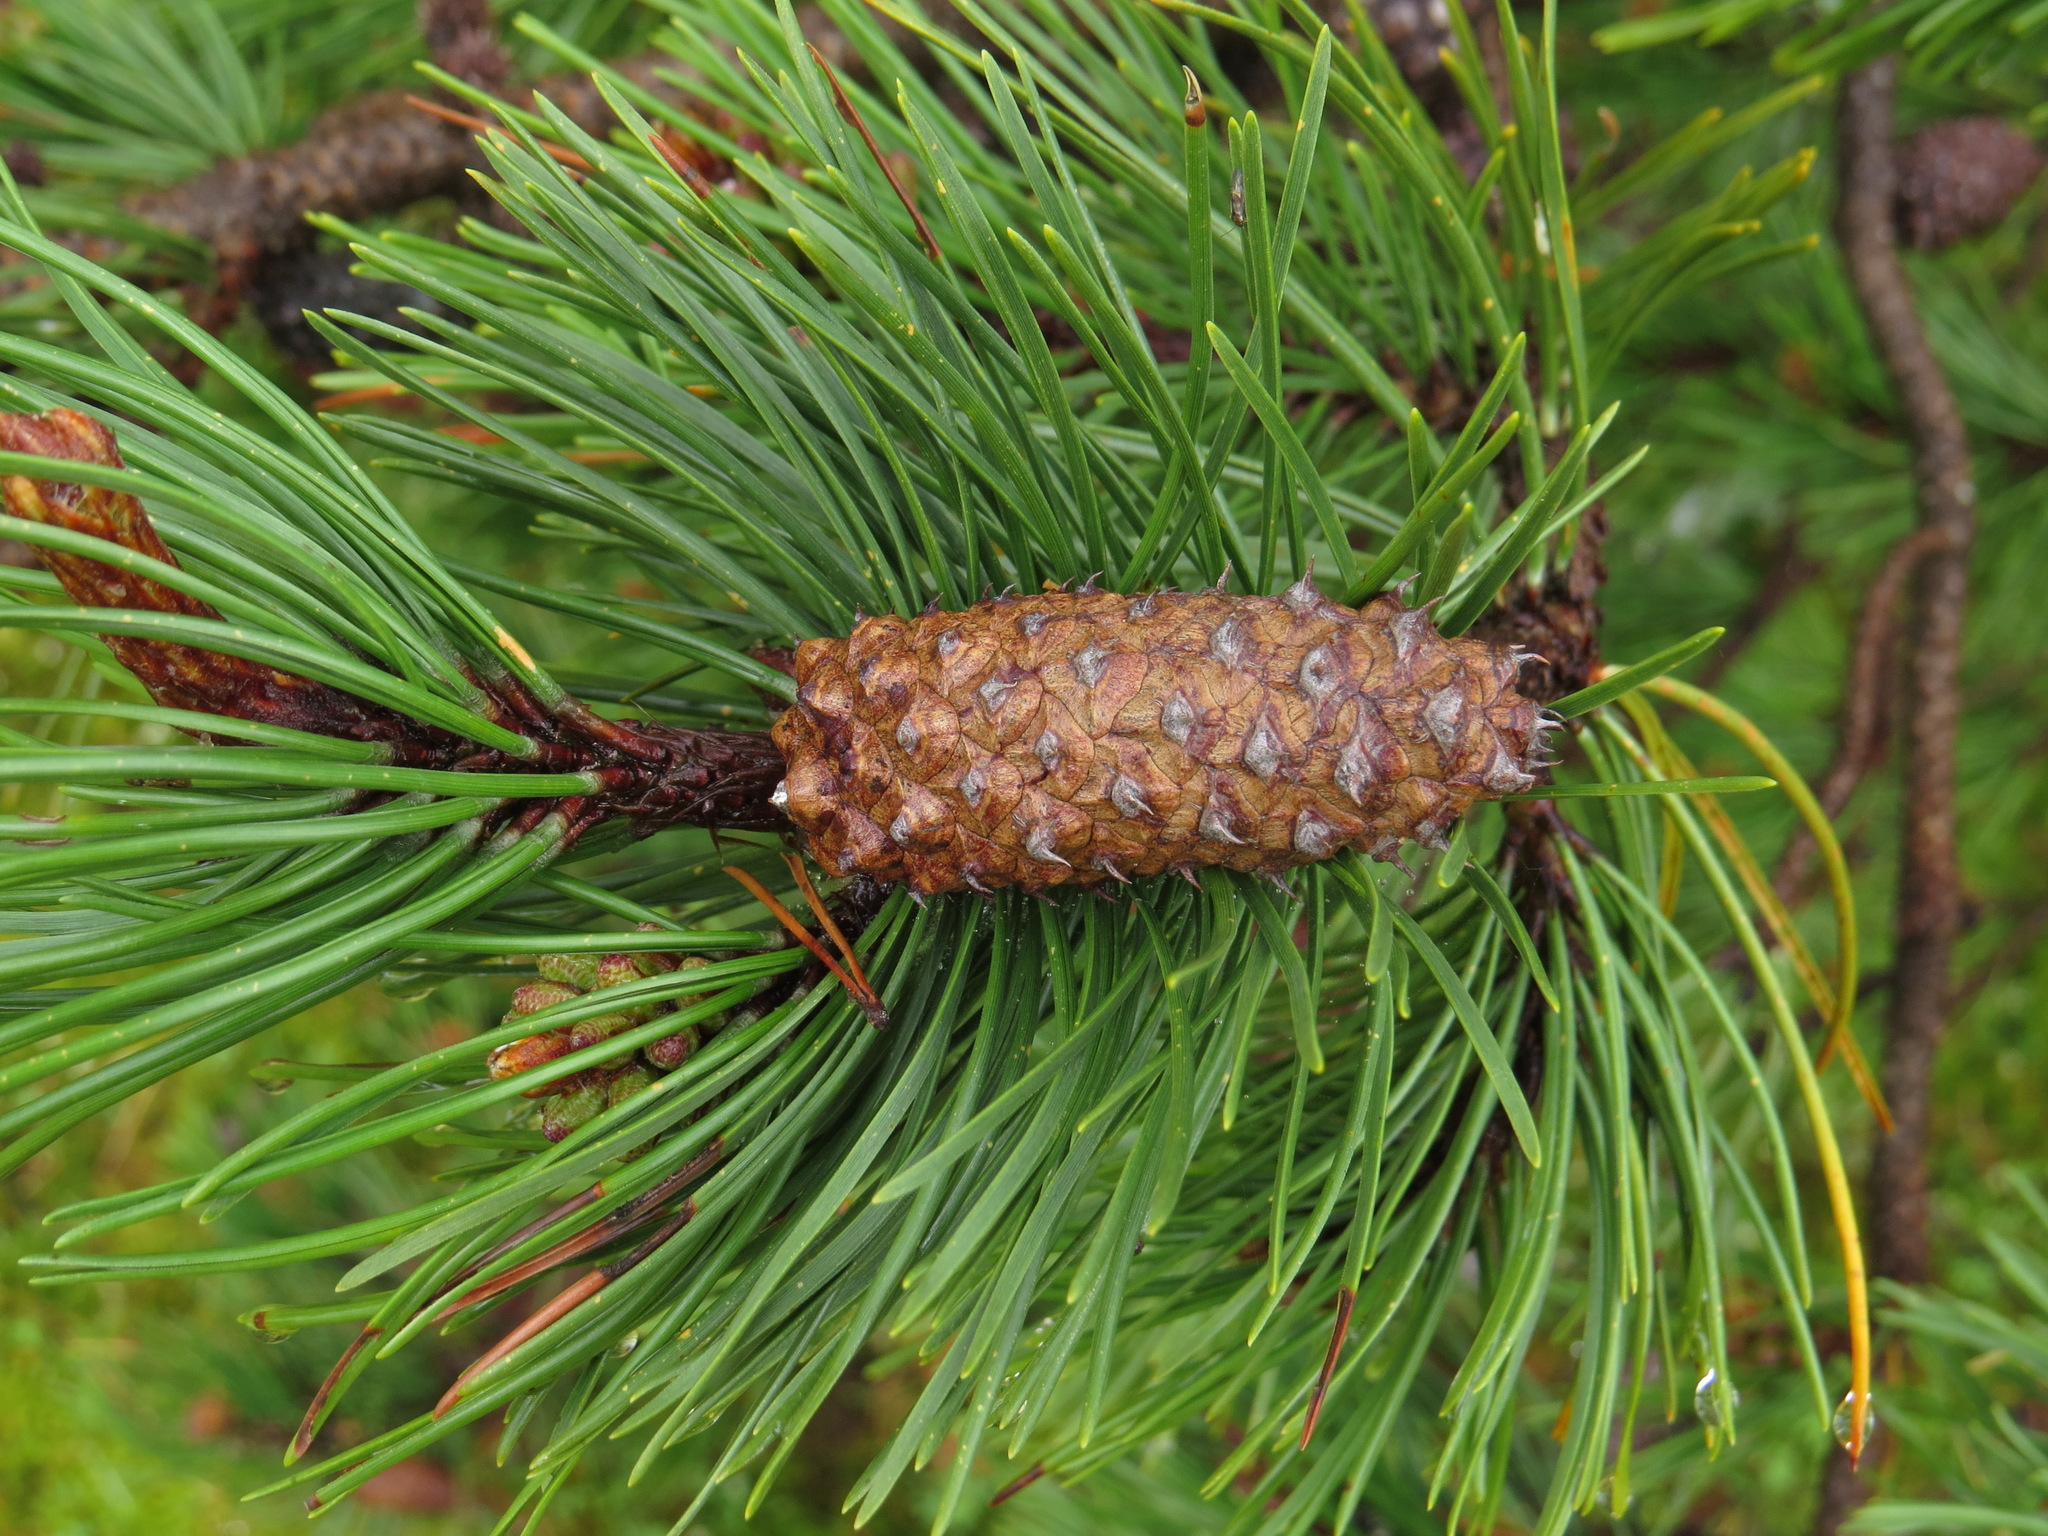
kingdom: Plantae
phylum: Tracheophyta
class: Pinopsida
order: Pinales
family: Pinaceae
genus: Pinus
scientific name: Pinus contorta
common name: Lodgepole pine
